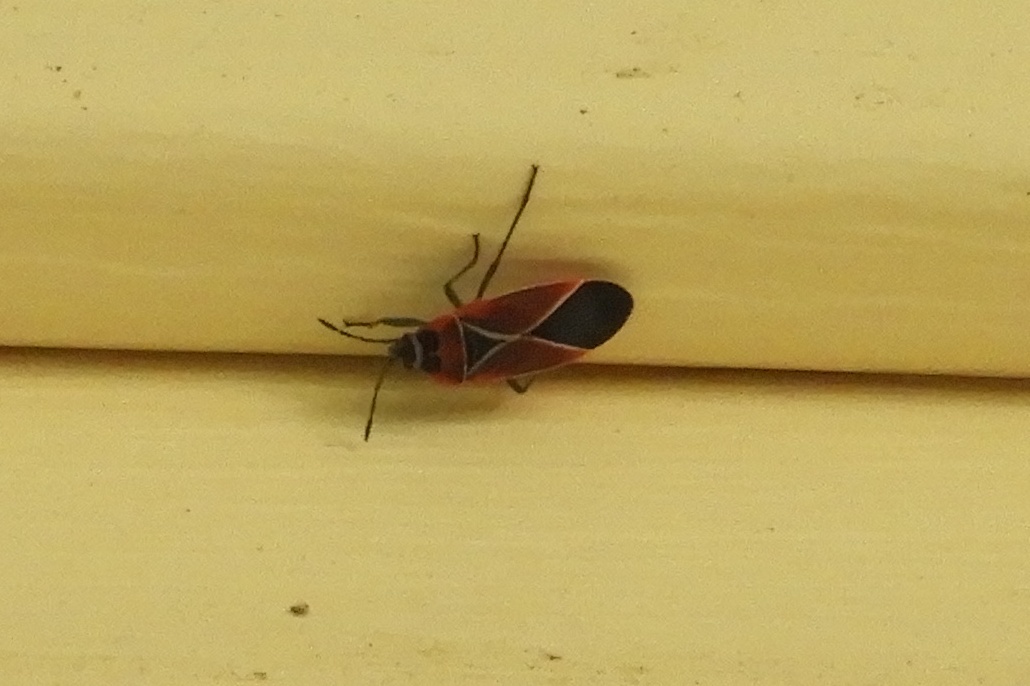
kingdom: Animalia
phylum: Arthropoda
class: Insecta
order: Hemiptera
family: Lygaeidae
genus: Neacoryphus
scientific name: Neacoryphus bicrucis
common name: Lygaeid bug
